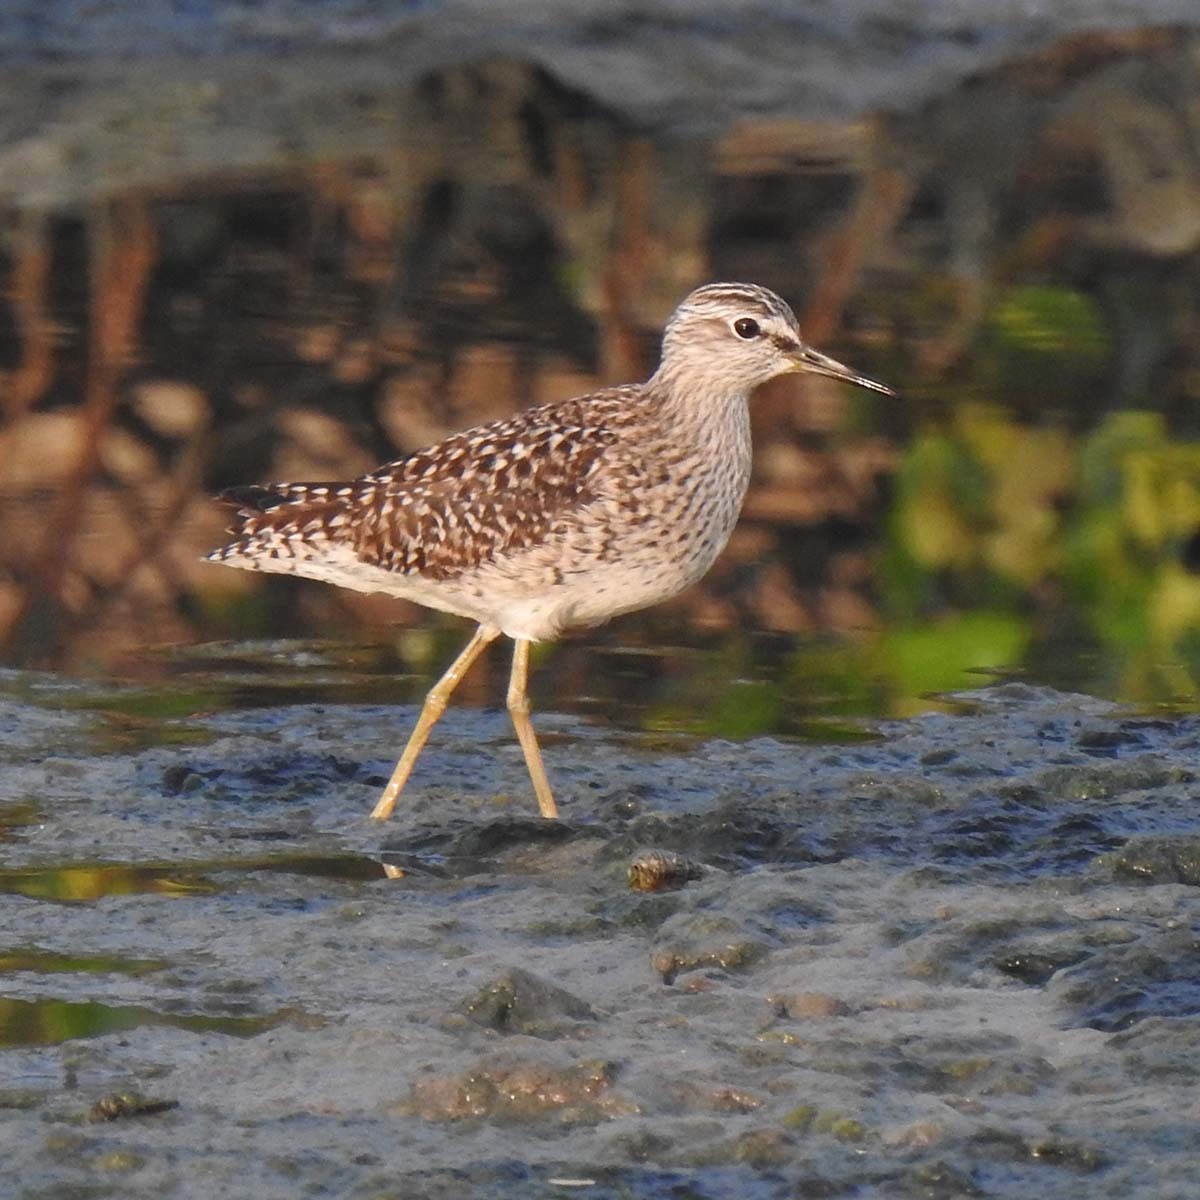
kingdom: Animalia
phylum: Chordata
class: Aves
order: Charadriiformes
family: Scolopacidae
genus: Tringa
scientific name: Tringa glareola
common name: Wood sandpiper
